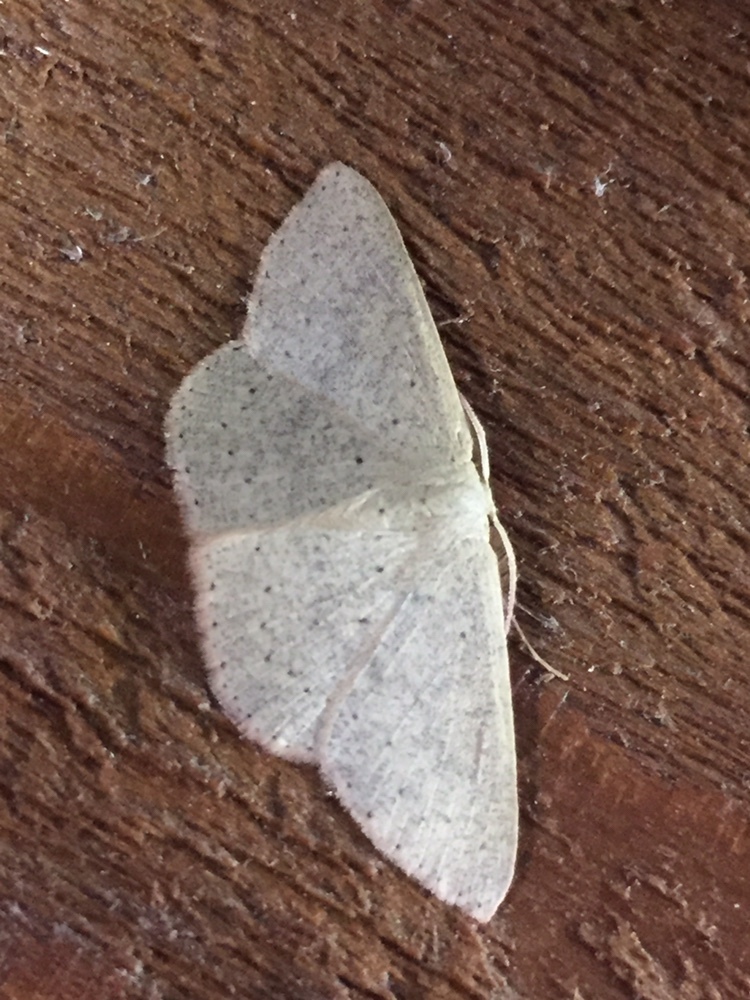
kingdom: Animalia
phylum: Arthropoda
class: Insecta
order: Lepidoptera
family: Geometridae
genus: Cyclophora
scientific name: Cyclophora obstataria
